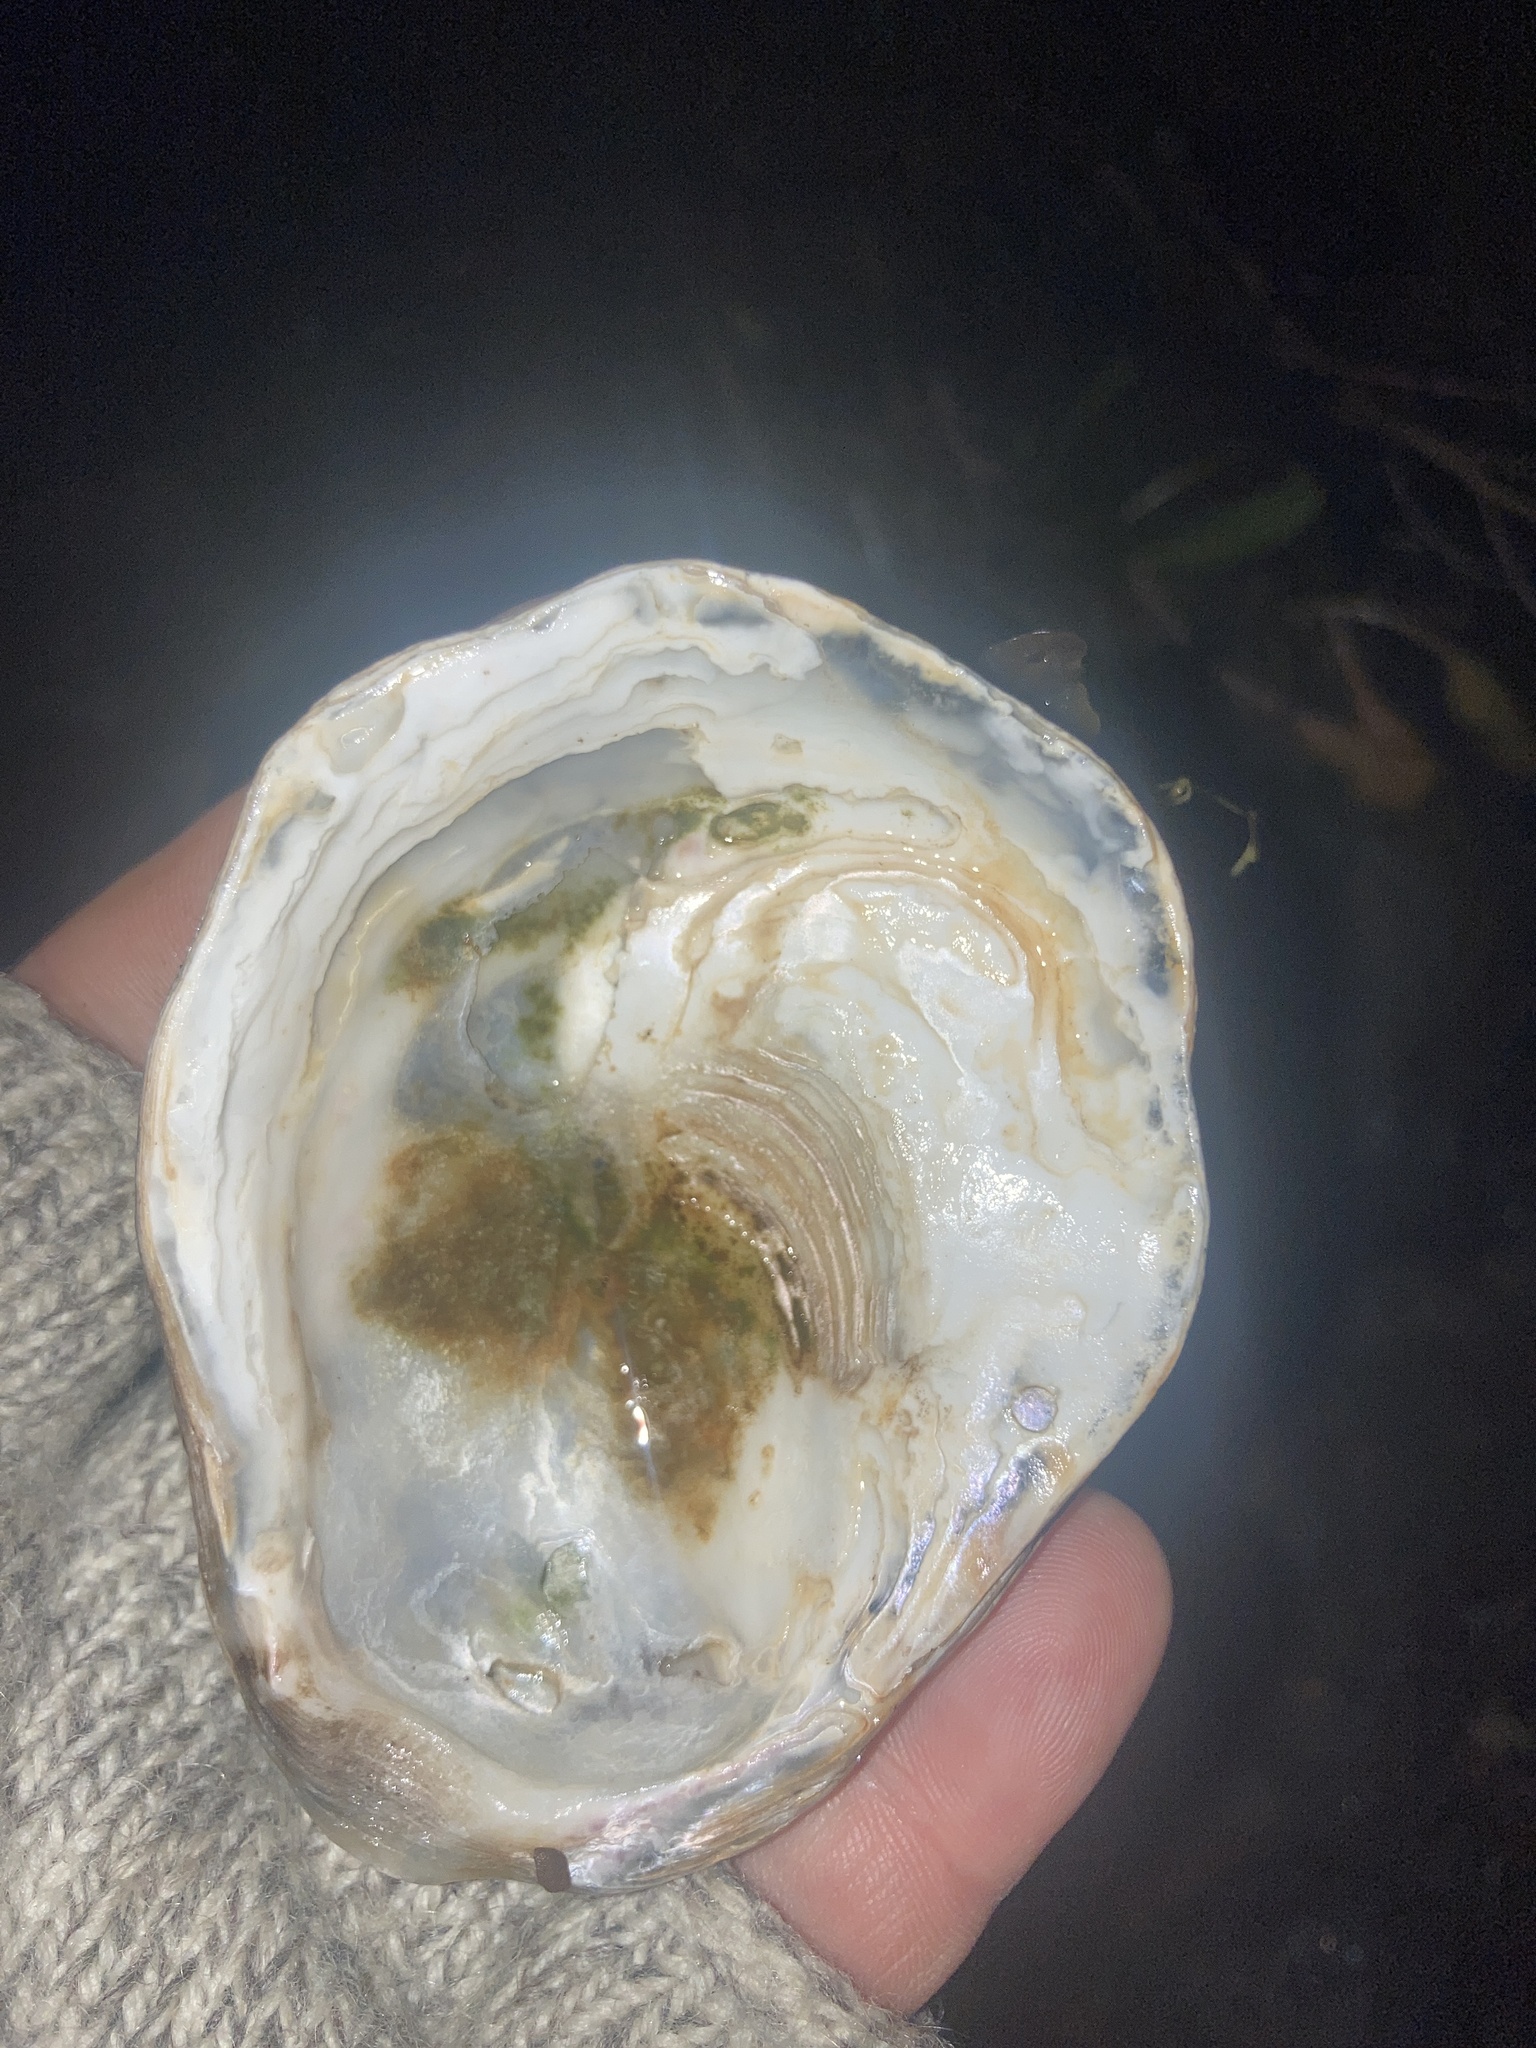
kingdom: Animalia
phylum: Mollusca
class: Bivalvia
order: Ostreida
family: Ostreidae
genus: Ostrea
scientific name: Ostrea edulis
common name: Flat oyster
